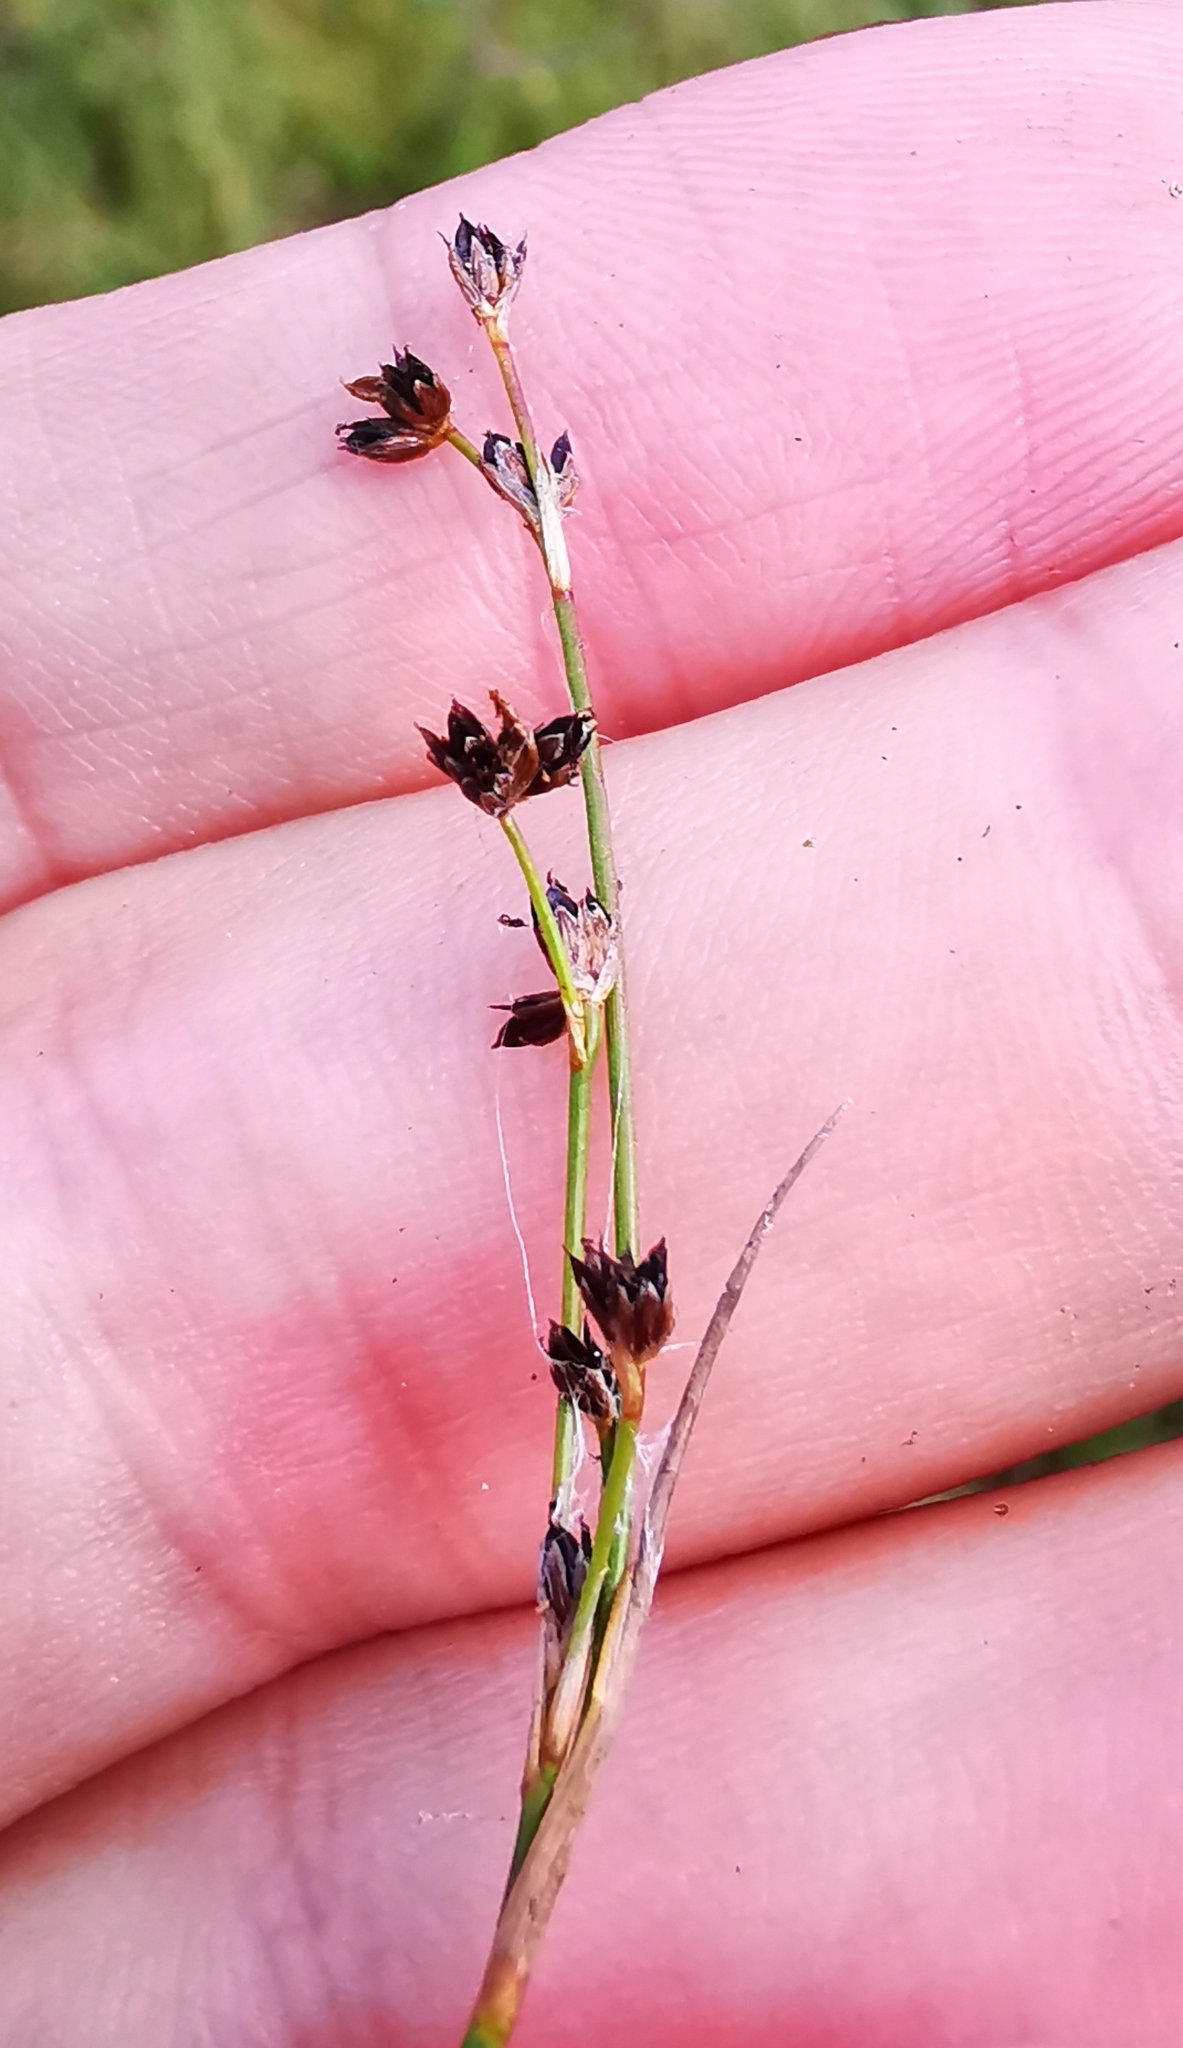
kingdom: Plantae
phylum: Tracheophyta
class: Liliopsida
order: Poales
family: Juncaceae
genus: Juncus
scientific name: Juncus articulatus
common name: Jointed rush
